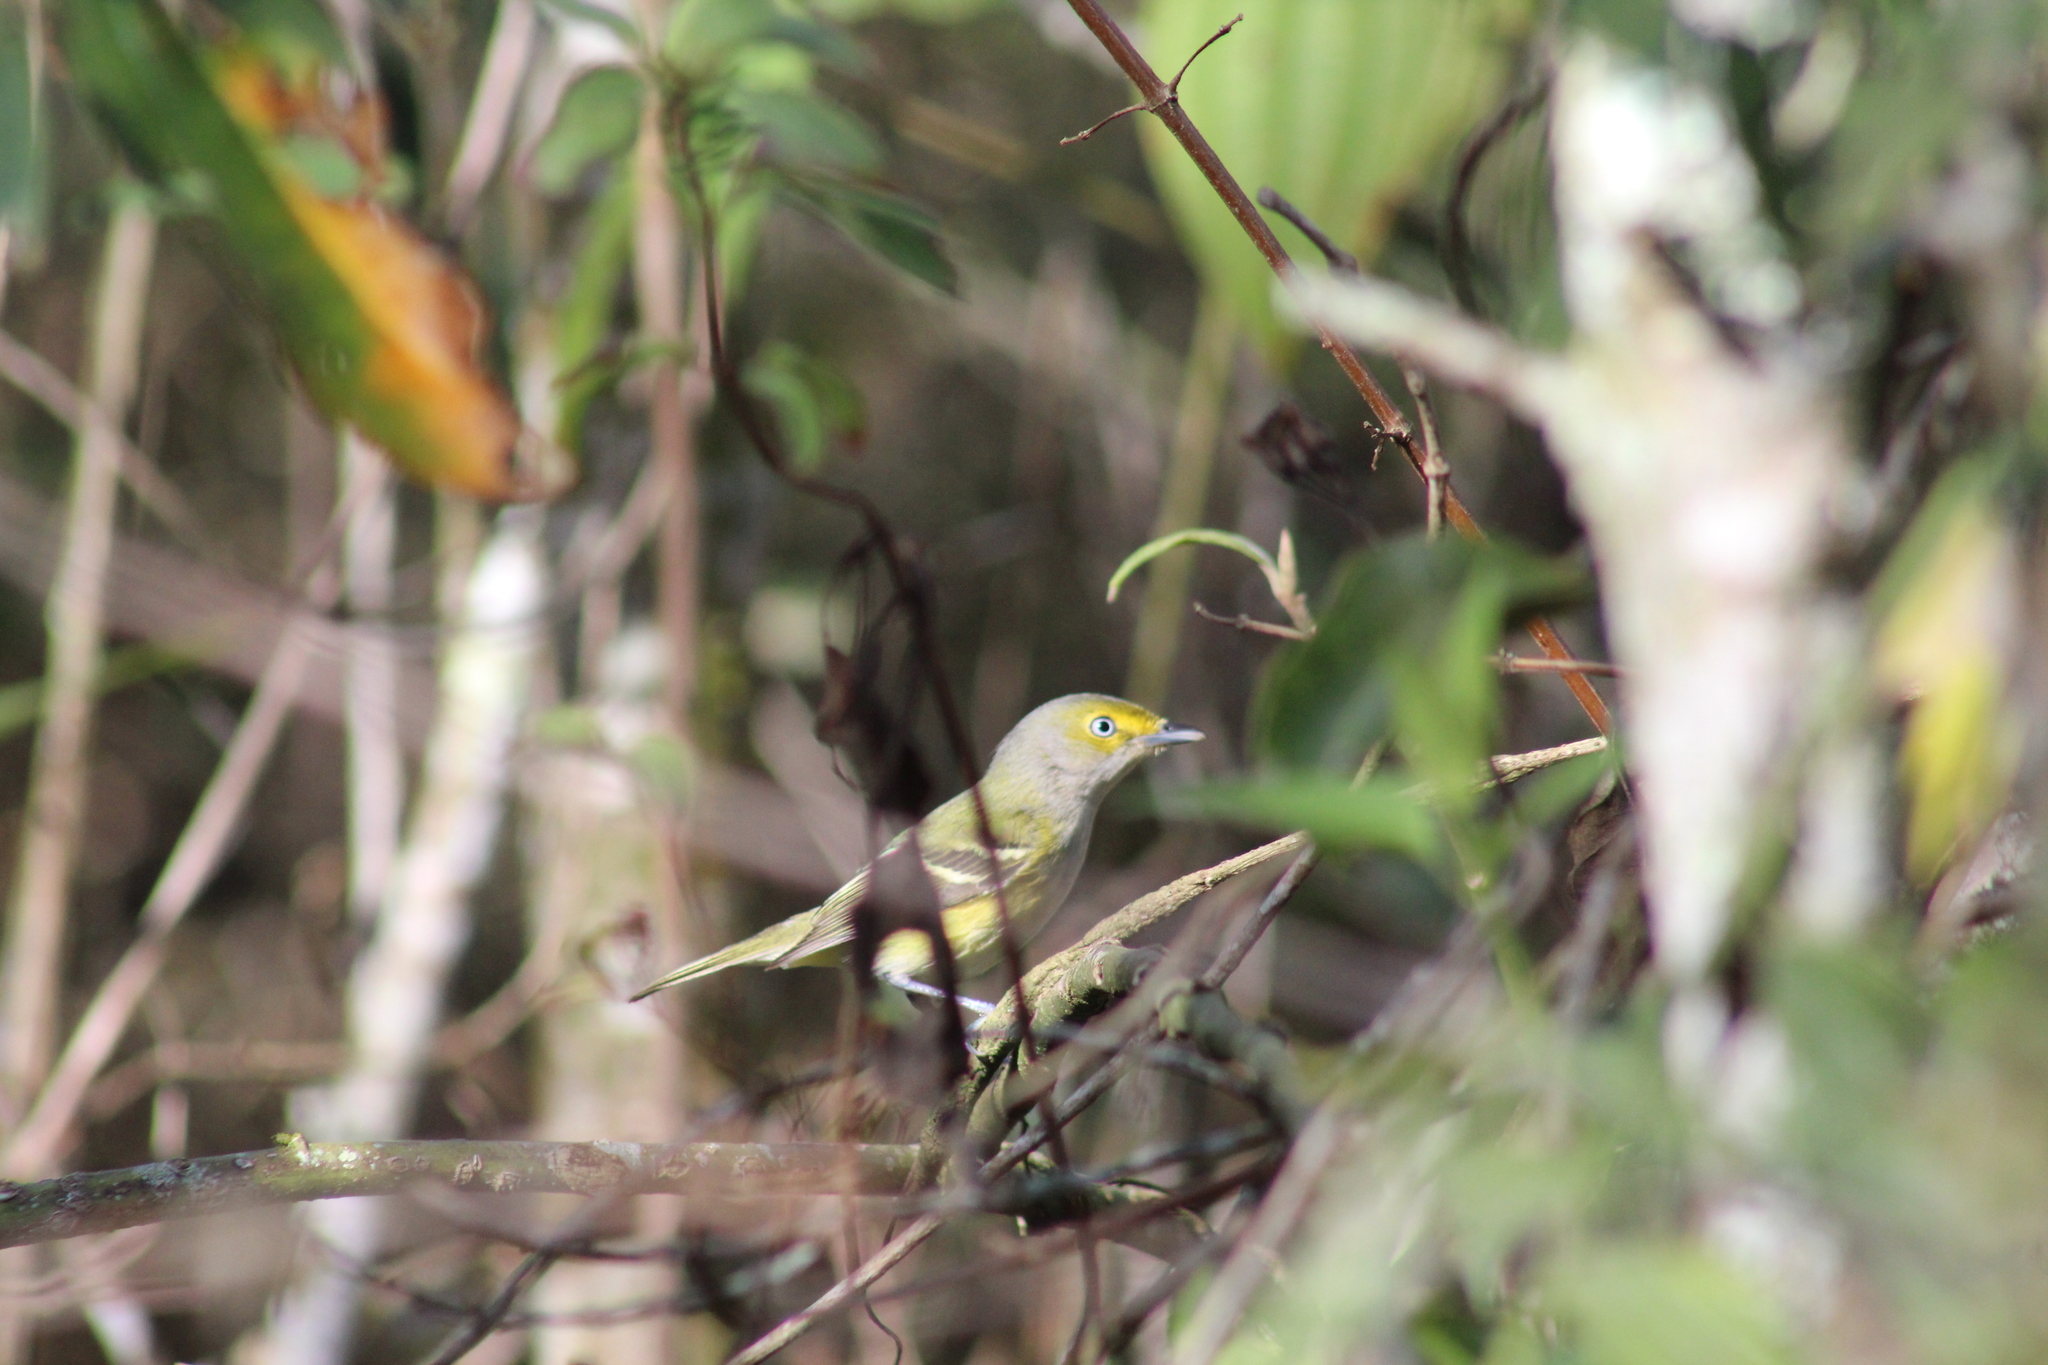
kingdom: Animalia
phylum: Chordata
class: Aves
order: Passeriformes
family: Vireonidae
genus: Vireo
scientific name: Vireo griseus
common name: White-eyed vireo
